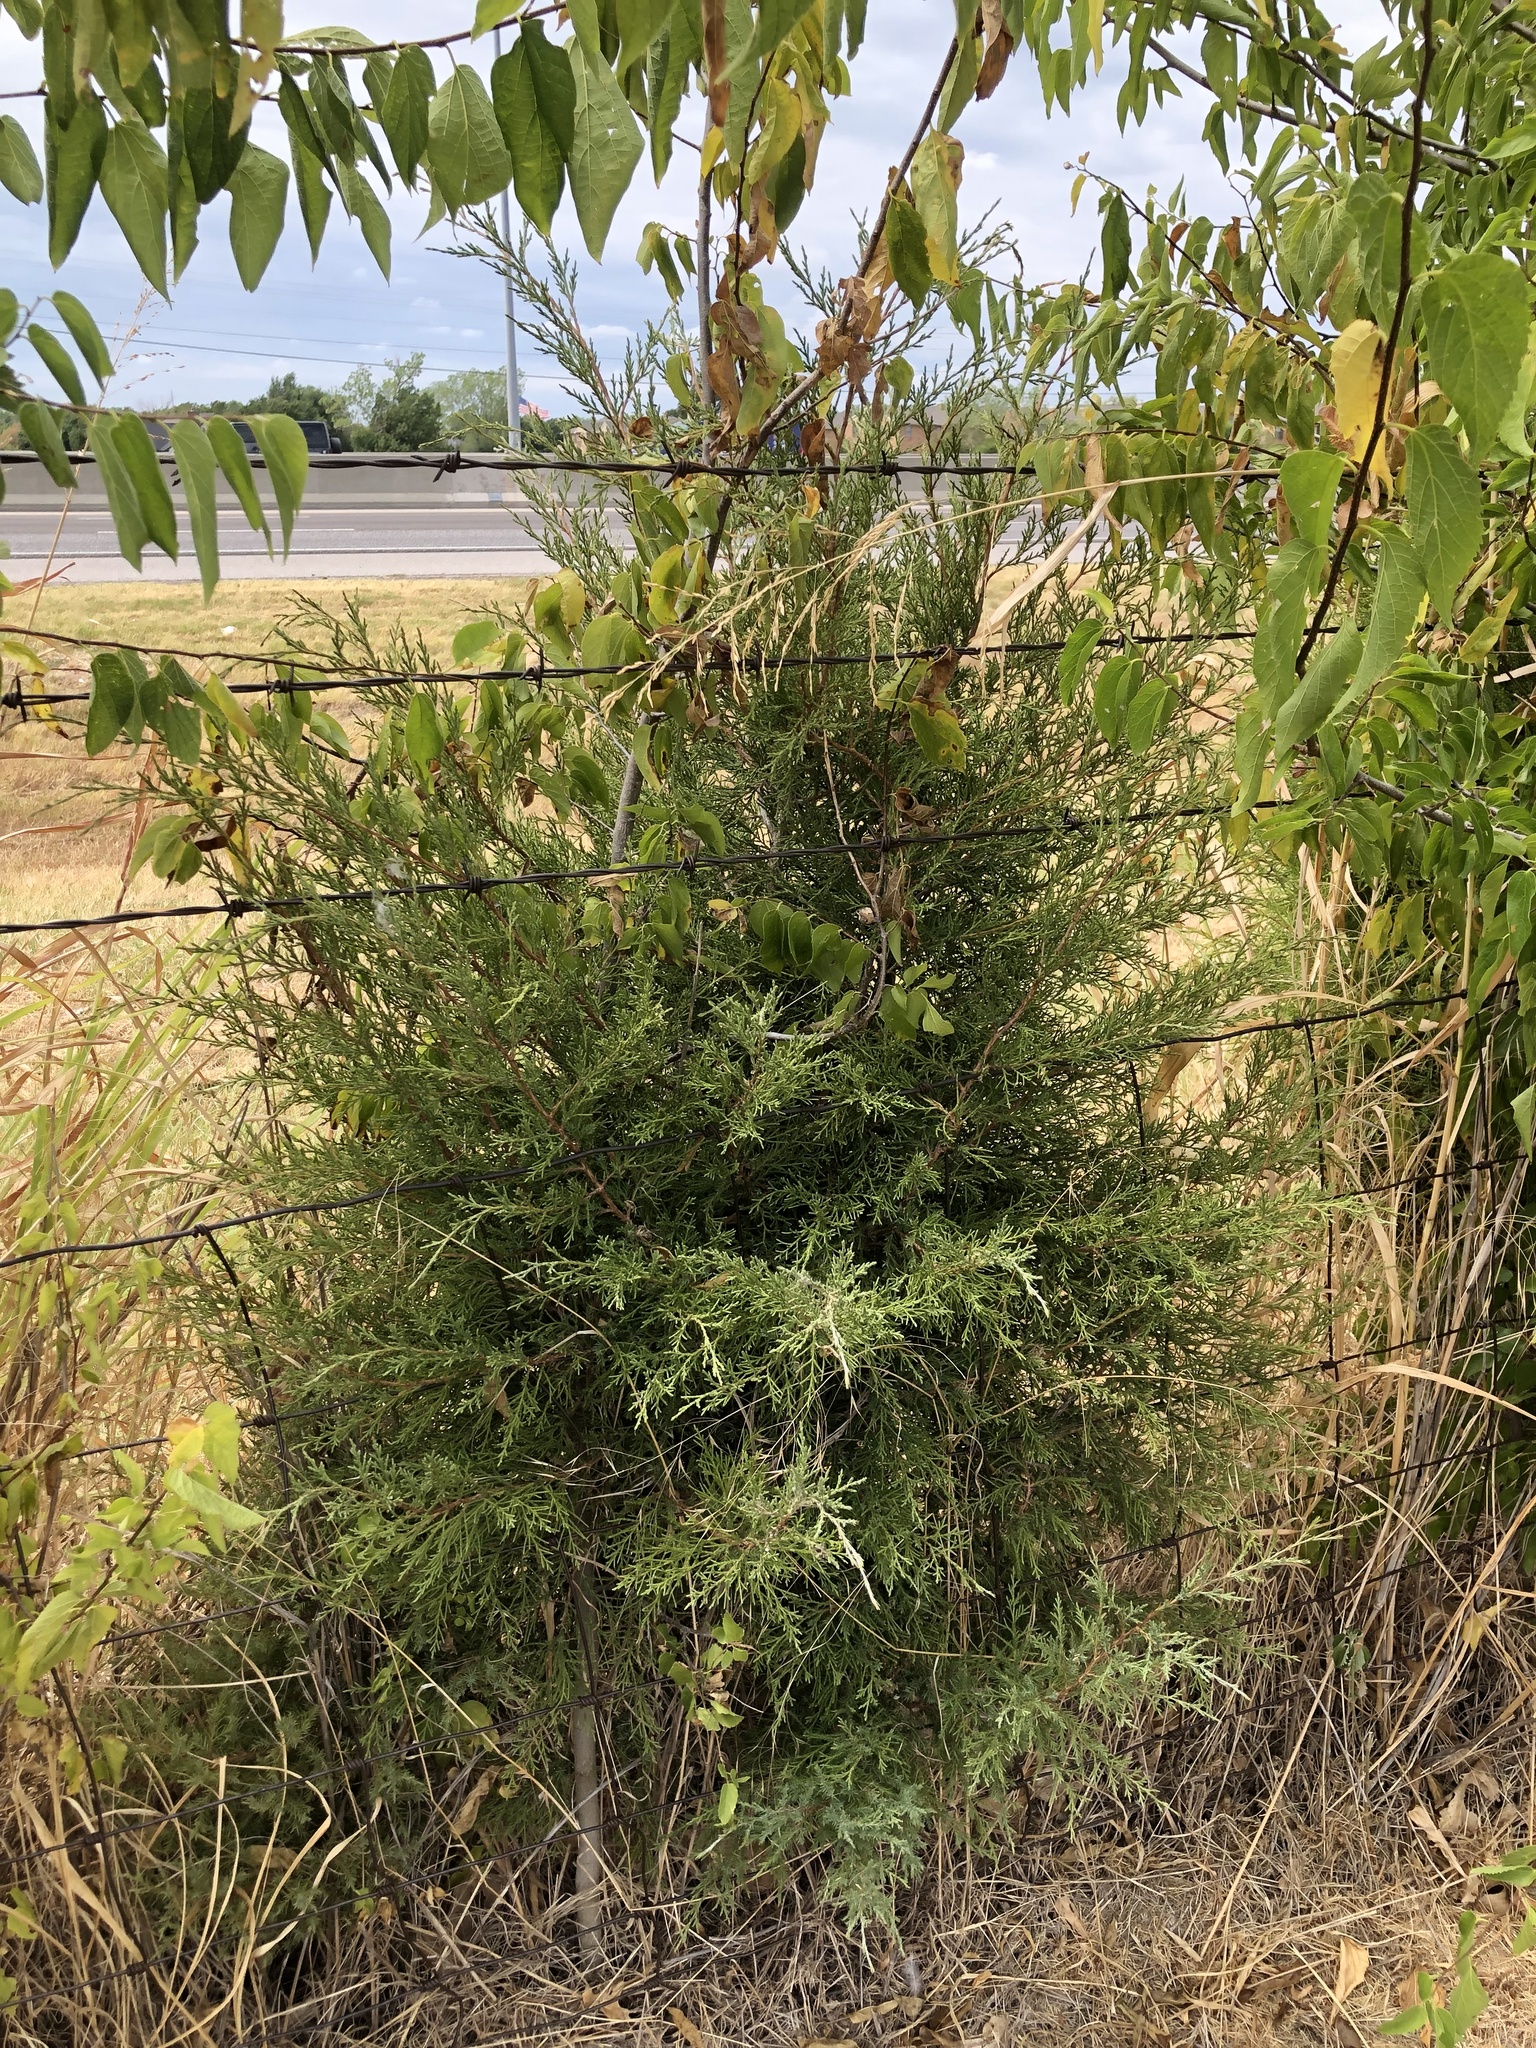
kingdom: Plantae
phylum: Tracheophyta
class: Pinopsida
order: Pinales
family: Cupressaceae
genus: Juniperus
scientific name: Juniperus virginiana
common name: Red juniper
